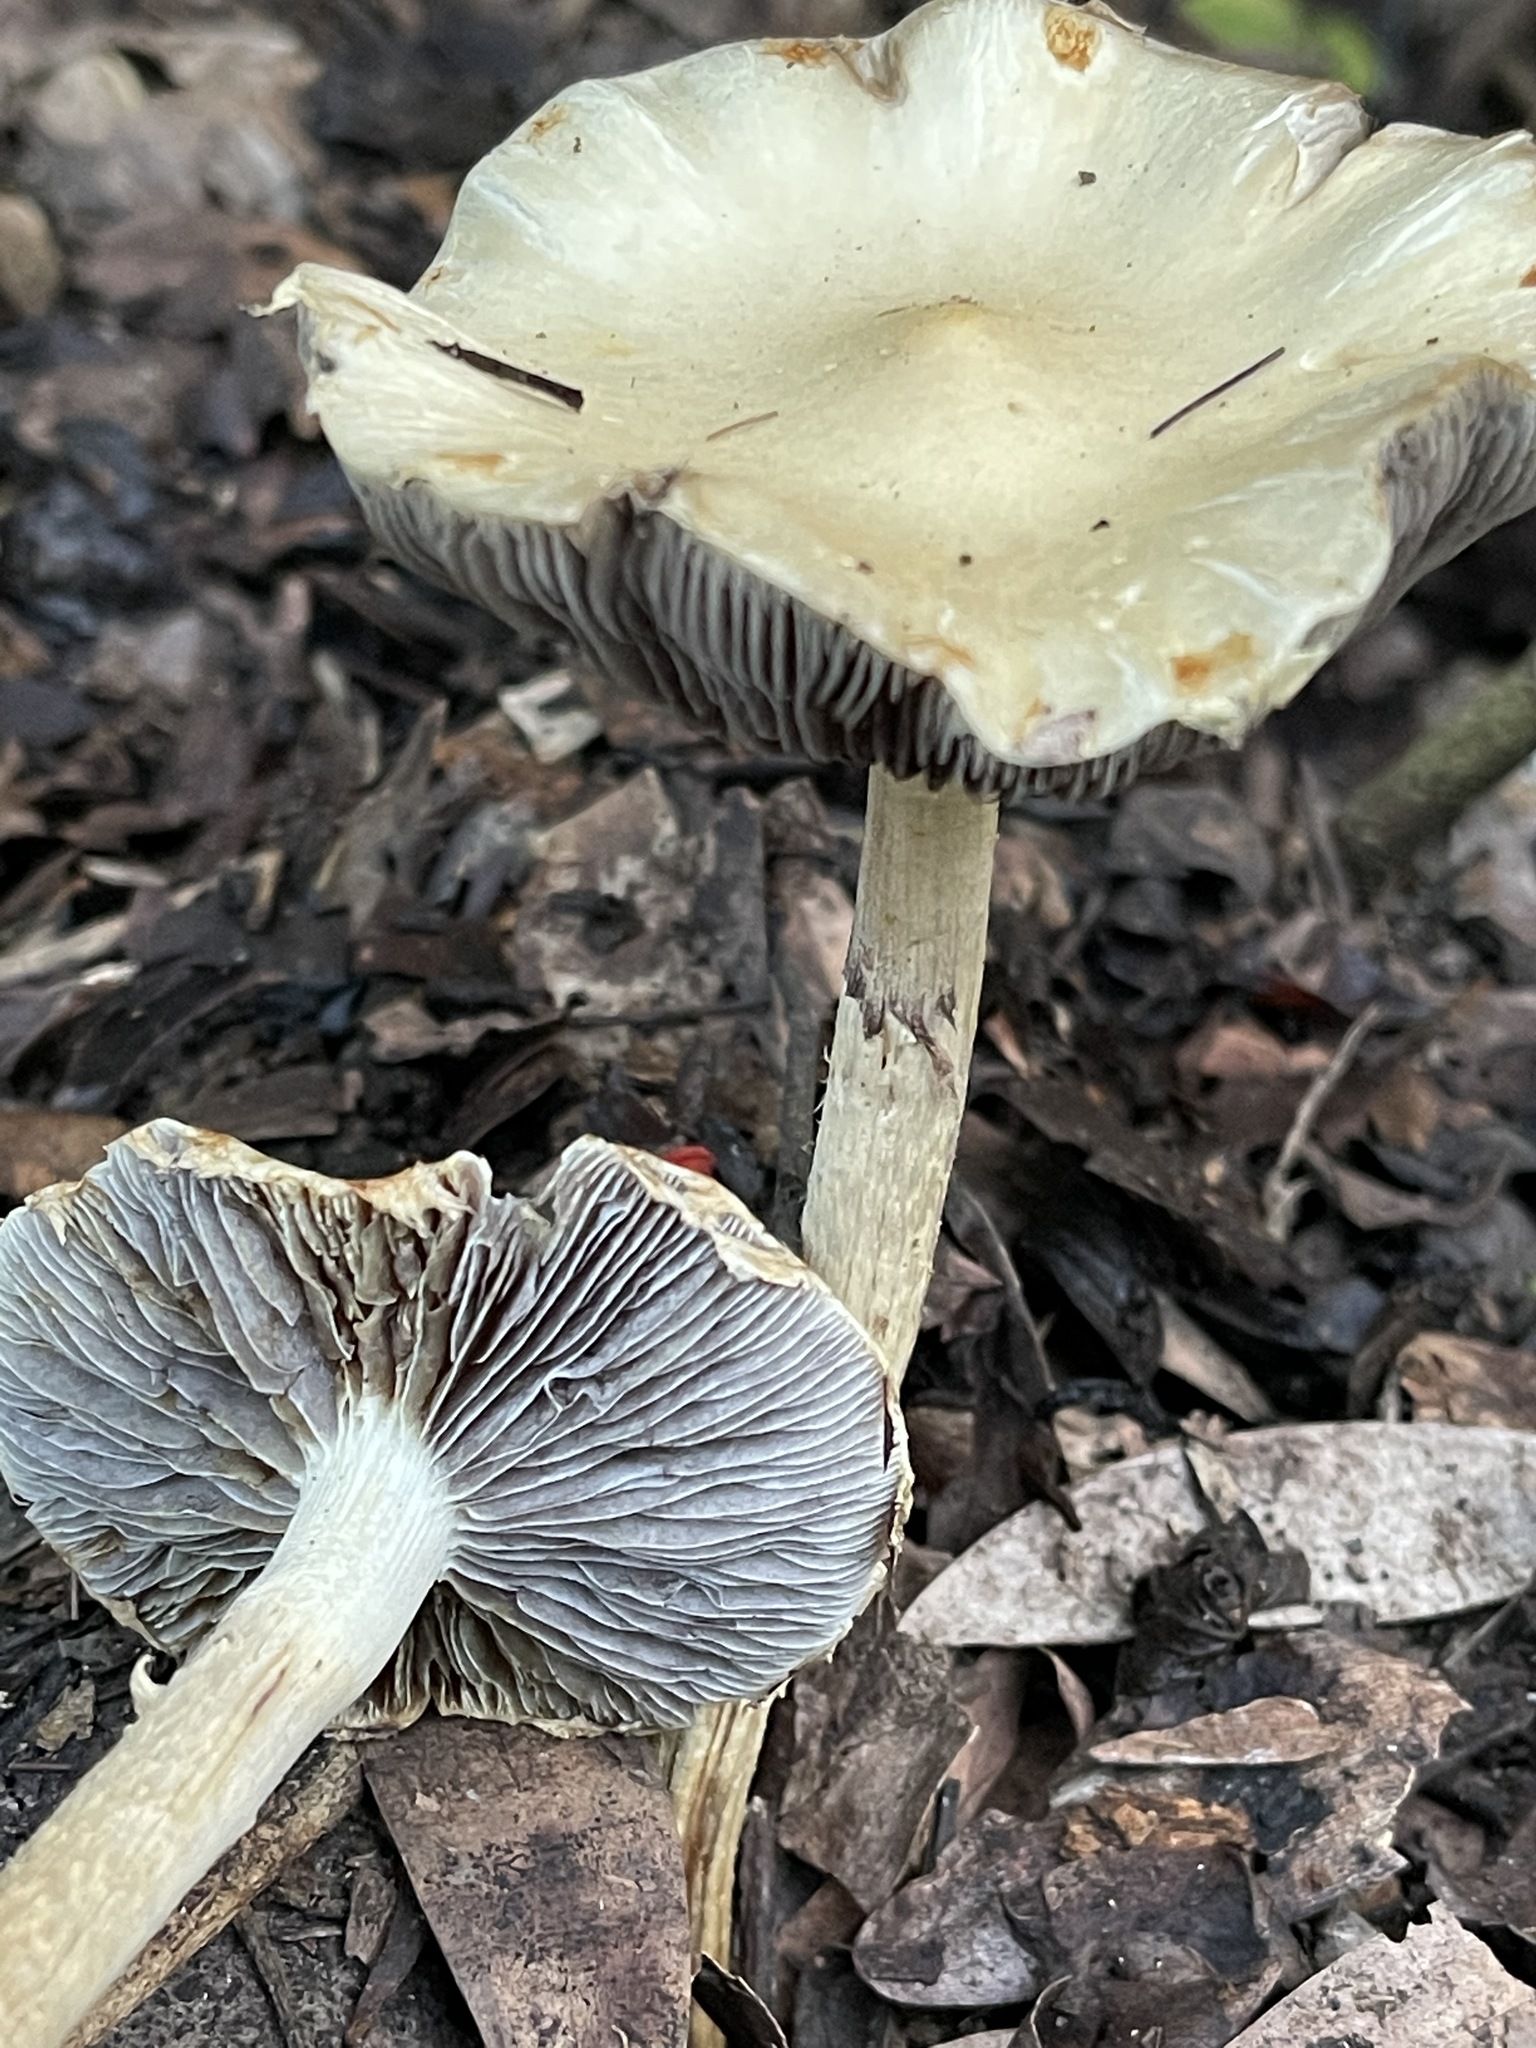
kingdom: Fungi
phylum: Basidiomycota
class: Agaricomycetes
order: Agaricales
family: Strophariaceae
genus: Leratiomyces
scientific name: Leratiomyces percevalii
